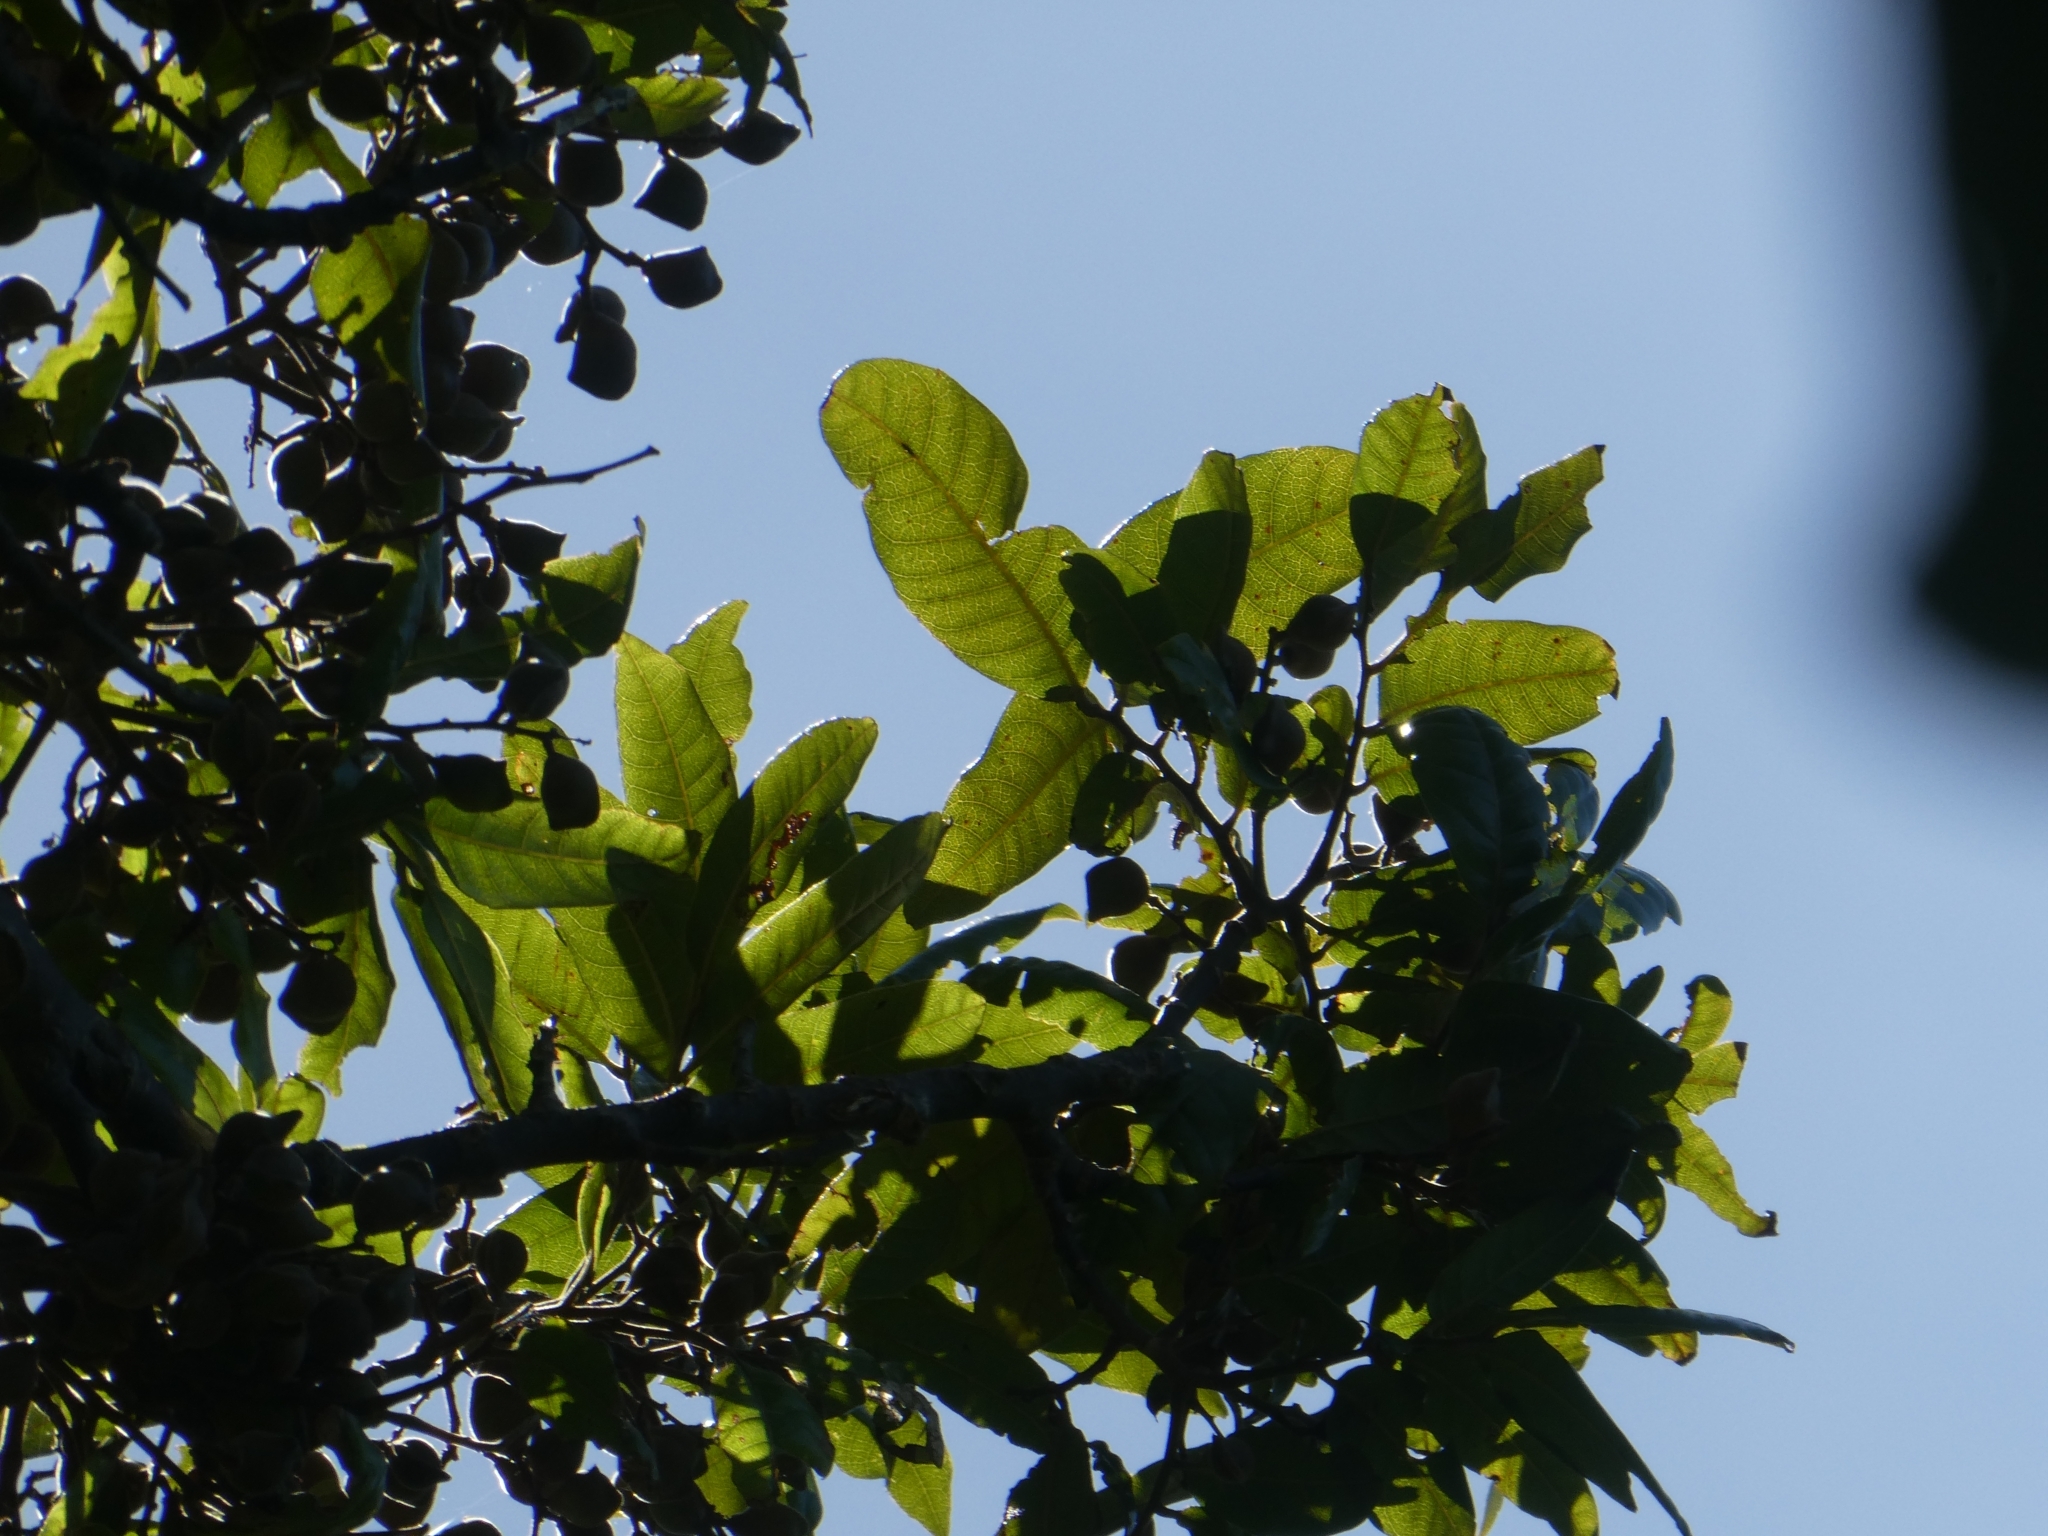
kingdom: Plantae
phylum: Tracheophyta
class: Magnoliopsida
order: Sapindales
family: Sapindaceae
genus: Alectryon
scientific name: Alectryon excelsus
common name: Three kings titoki
